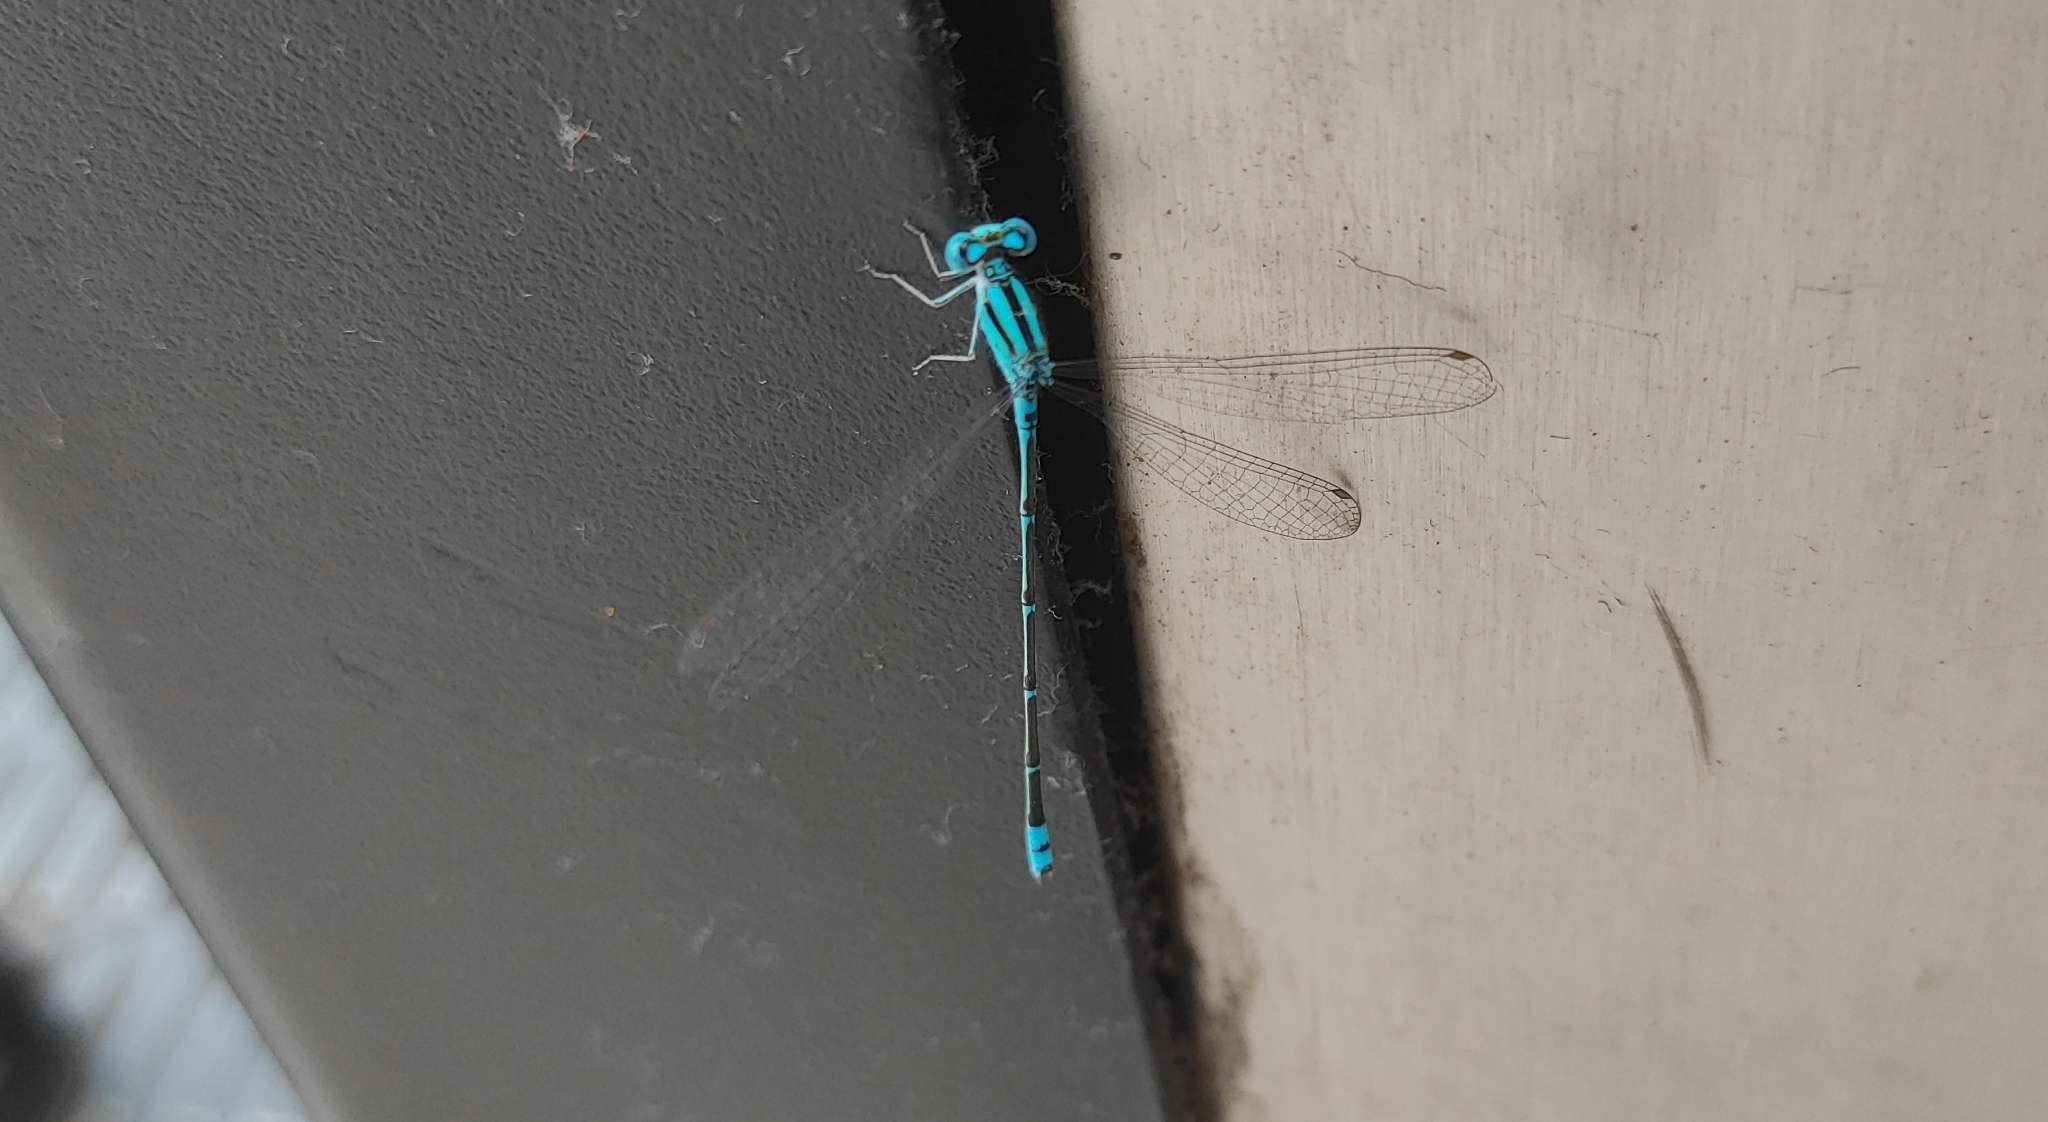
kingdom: Animalia
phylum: Arthropoda
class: Insecta
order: Odonata
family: Coenagrionidae
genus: Pseudagrion
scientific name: Pseudagrion microcephalum
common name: Blue riverdamsel
